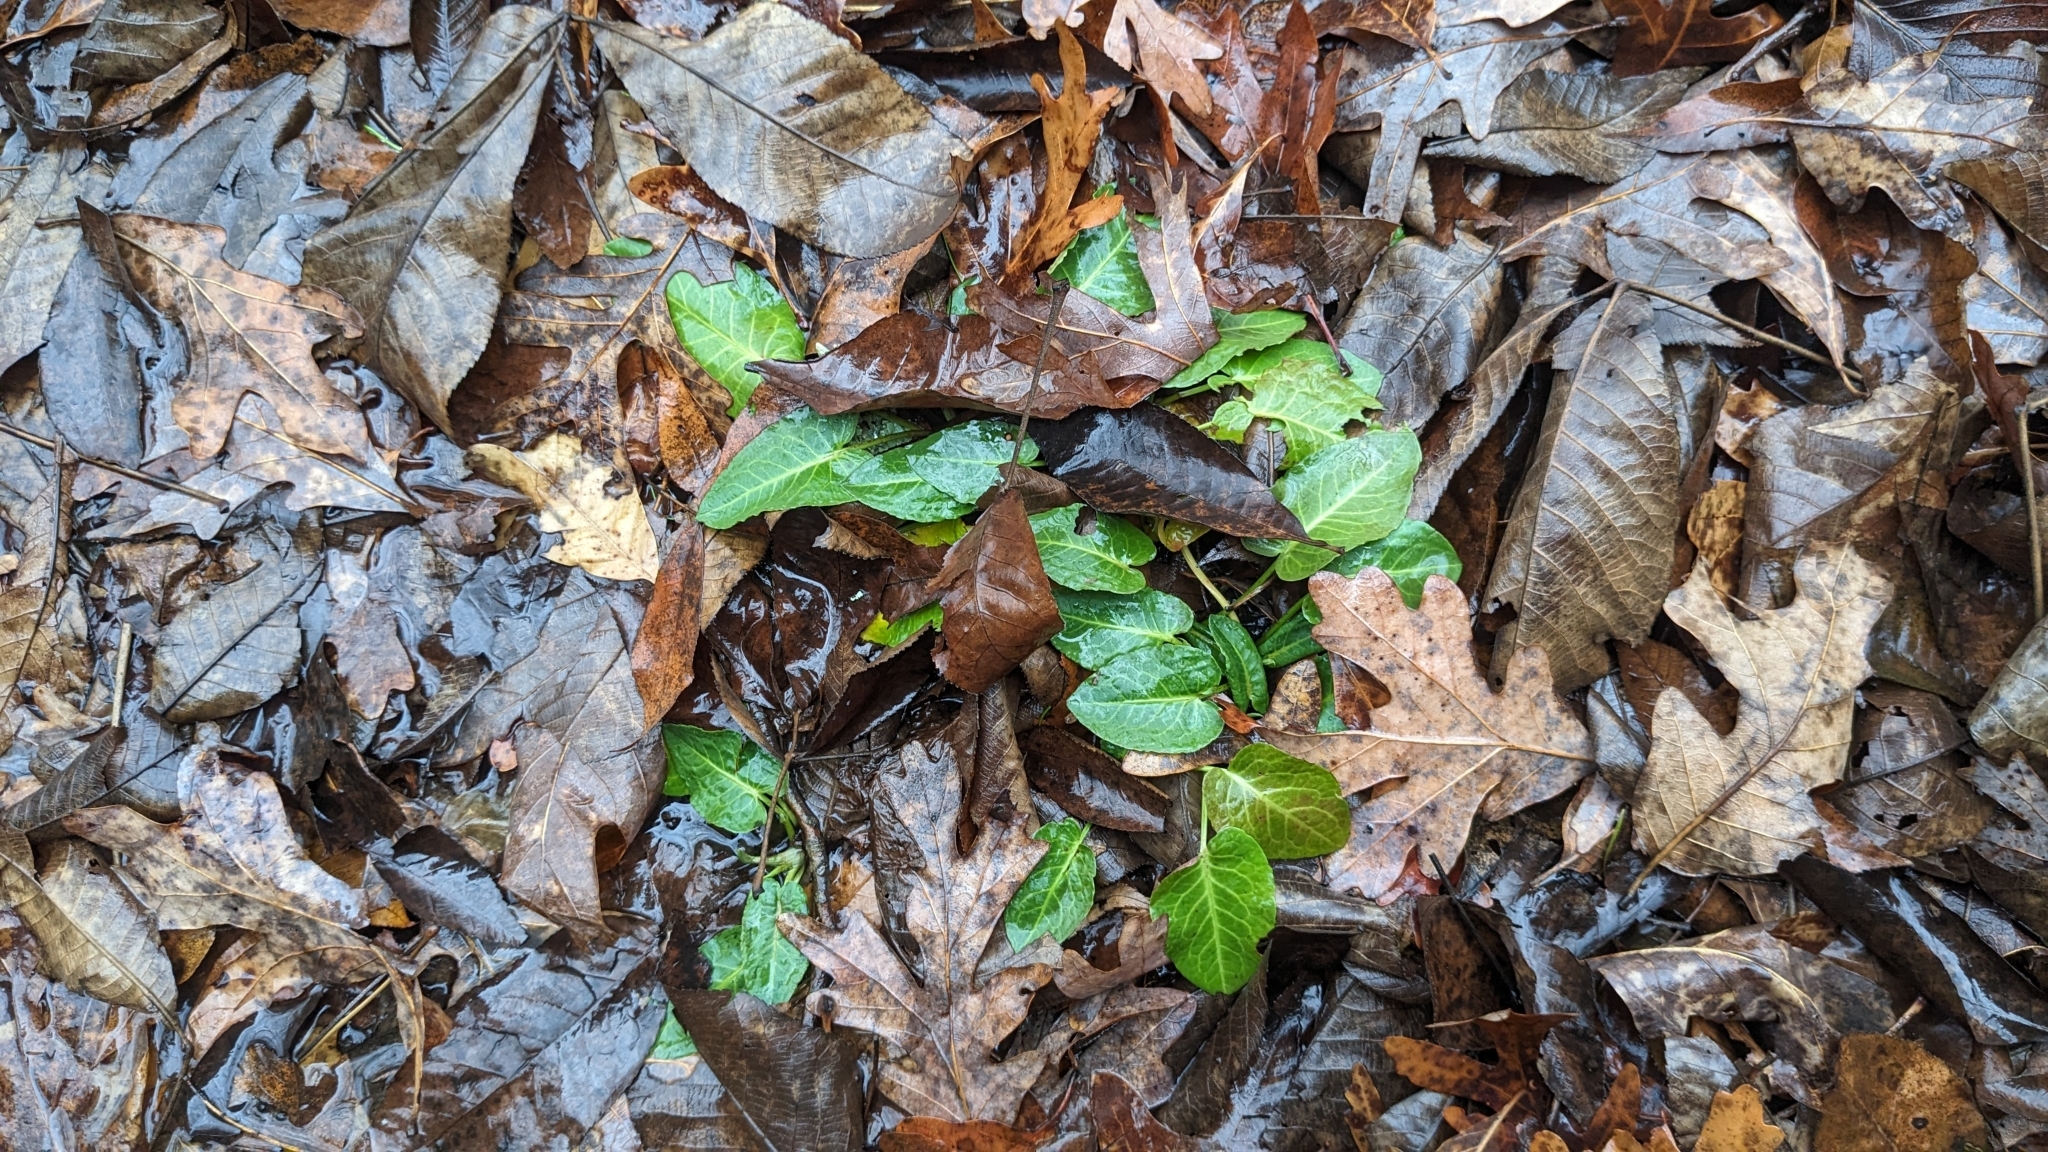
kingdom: Plantae
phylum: Tracheophyta
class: Magnoliopsida
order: Caryophyllales
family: Polygonaceae
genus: Rumex
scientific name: Rumex obtusifolius
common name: Bitter dock
